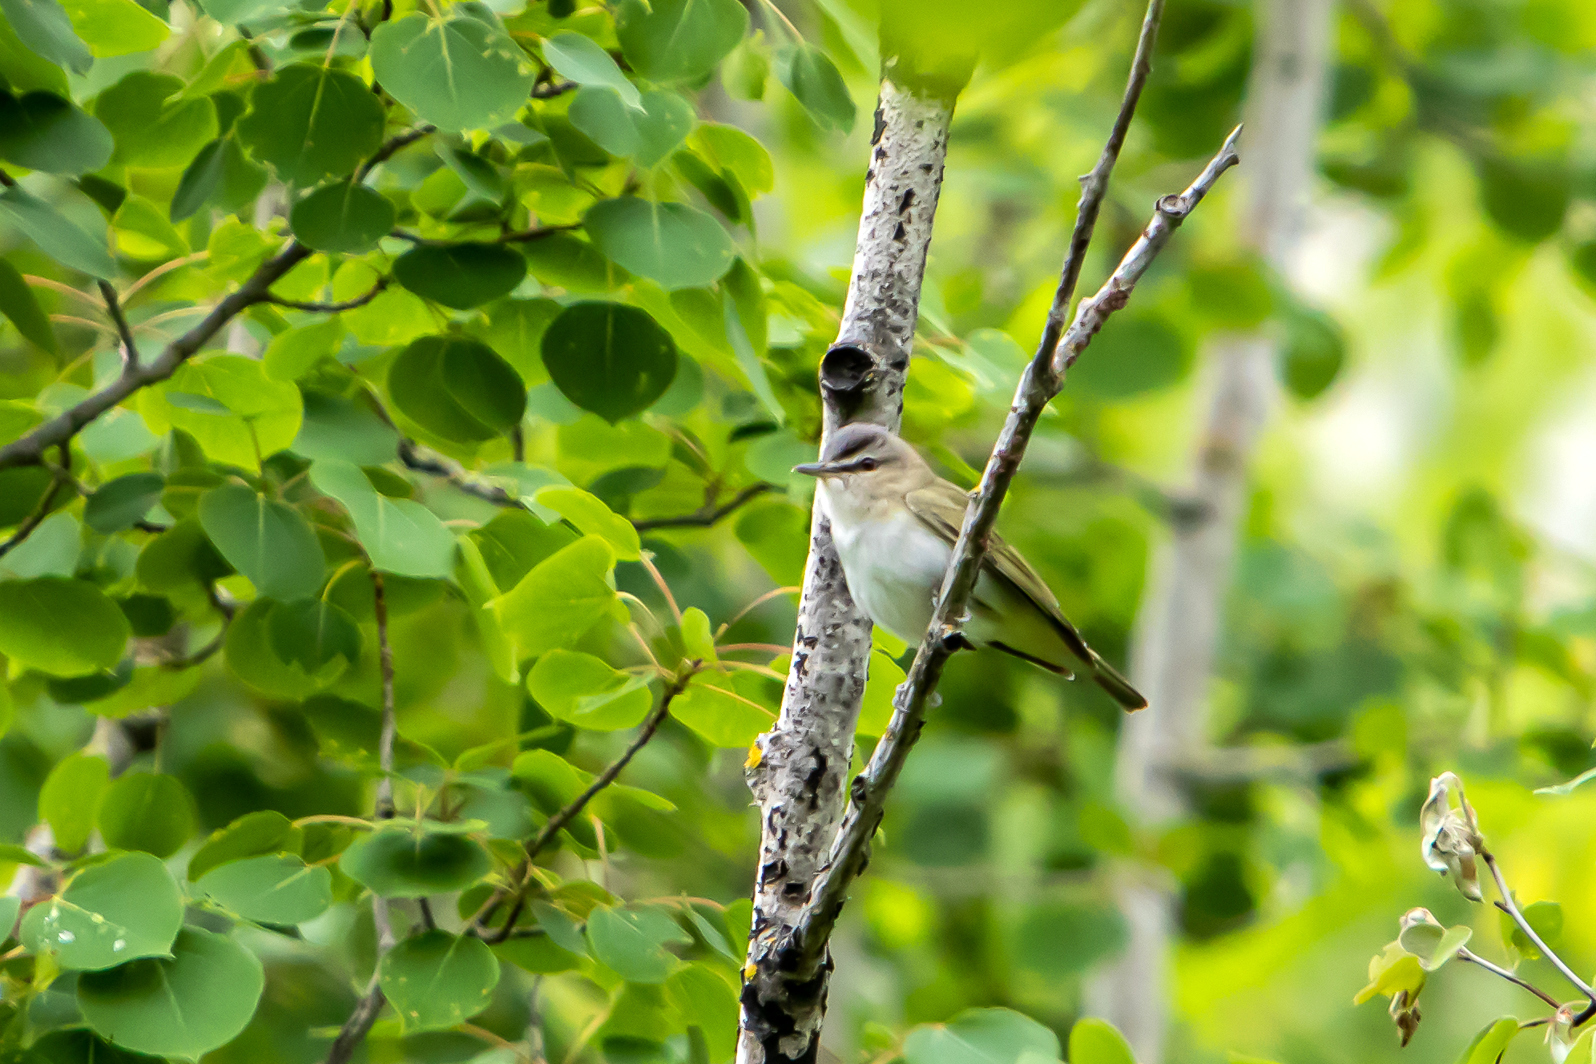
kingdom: Animalia
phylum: Chordata
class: Aves
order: Passeriformes
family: Vireonidae
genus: Vireo
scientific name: Vireo olivaceus
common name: Red-eyed vireo
